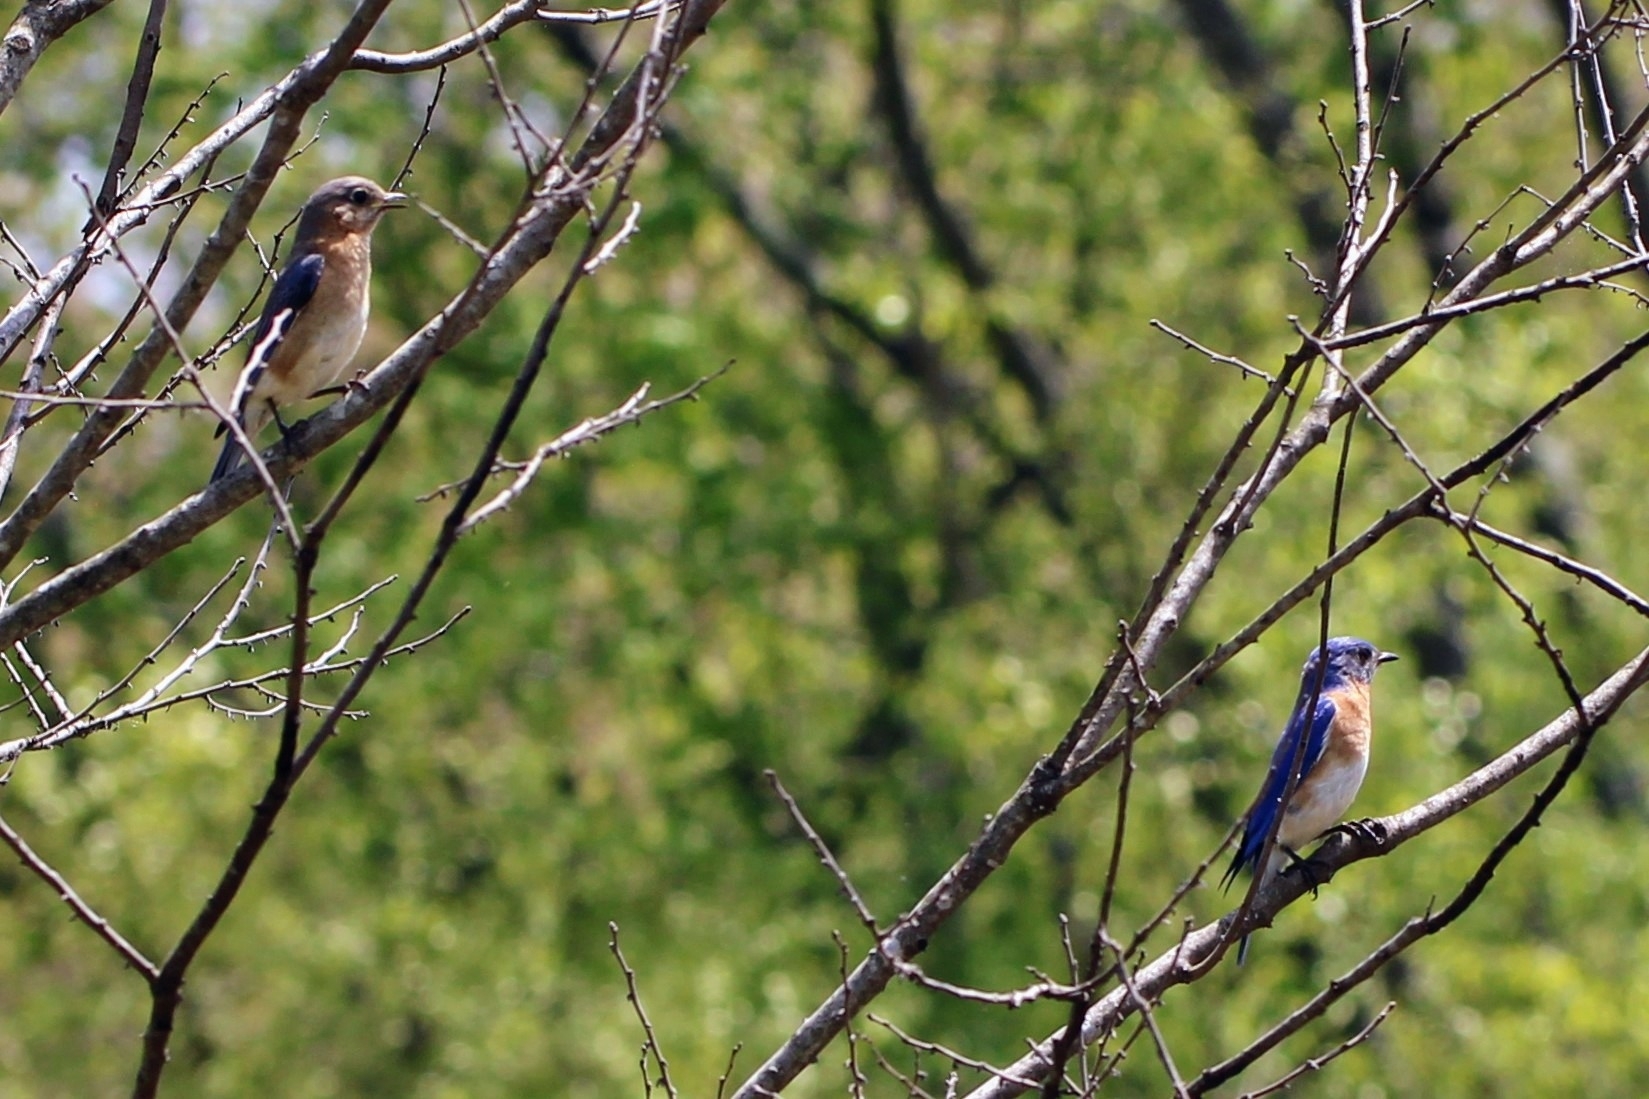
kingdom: Animalia
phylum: Chordata
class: Aves
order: Passeriformes
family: Turdidae
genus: Sialia
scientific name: Sialia sialis
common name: Eastern bluebird
